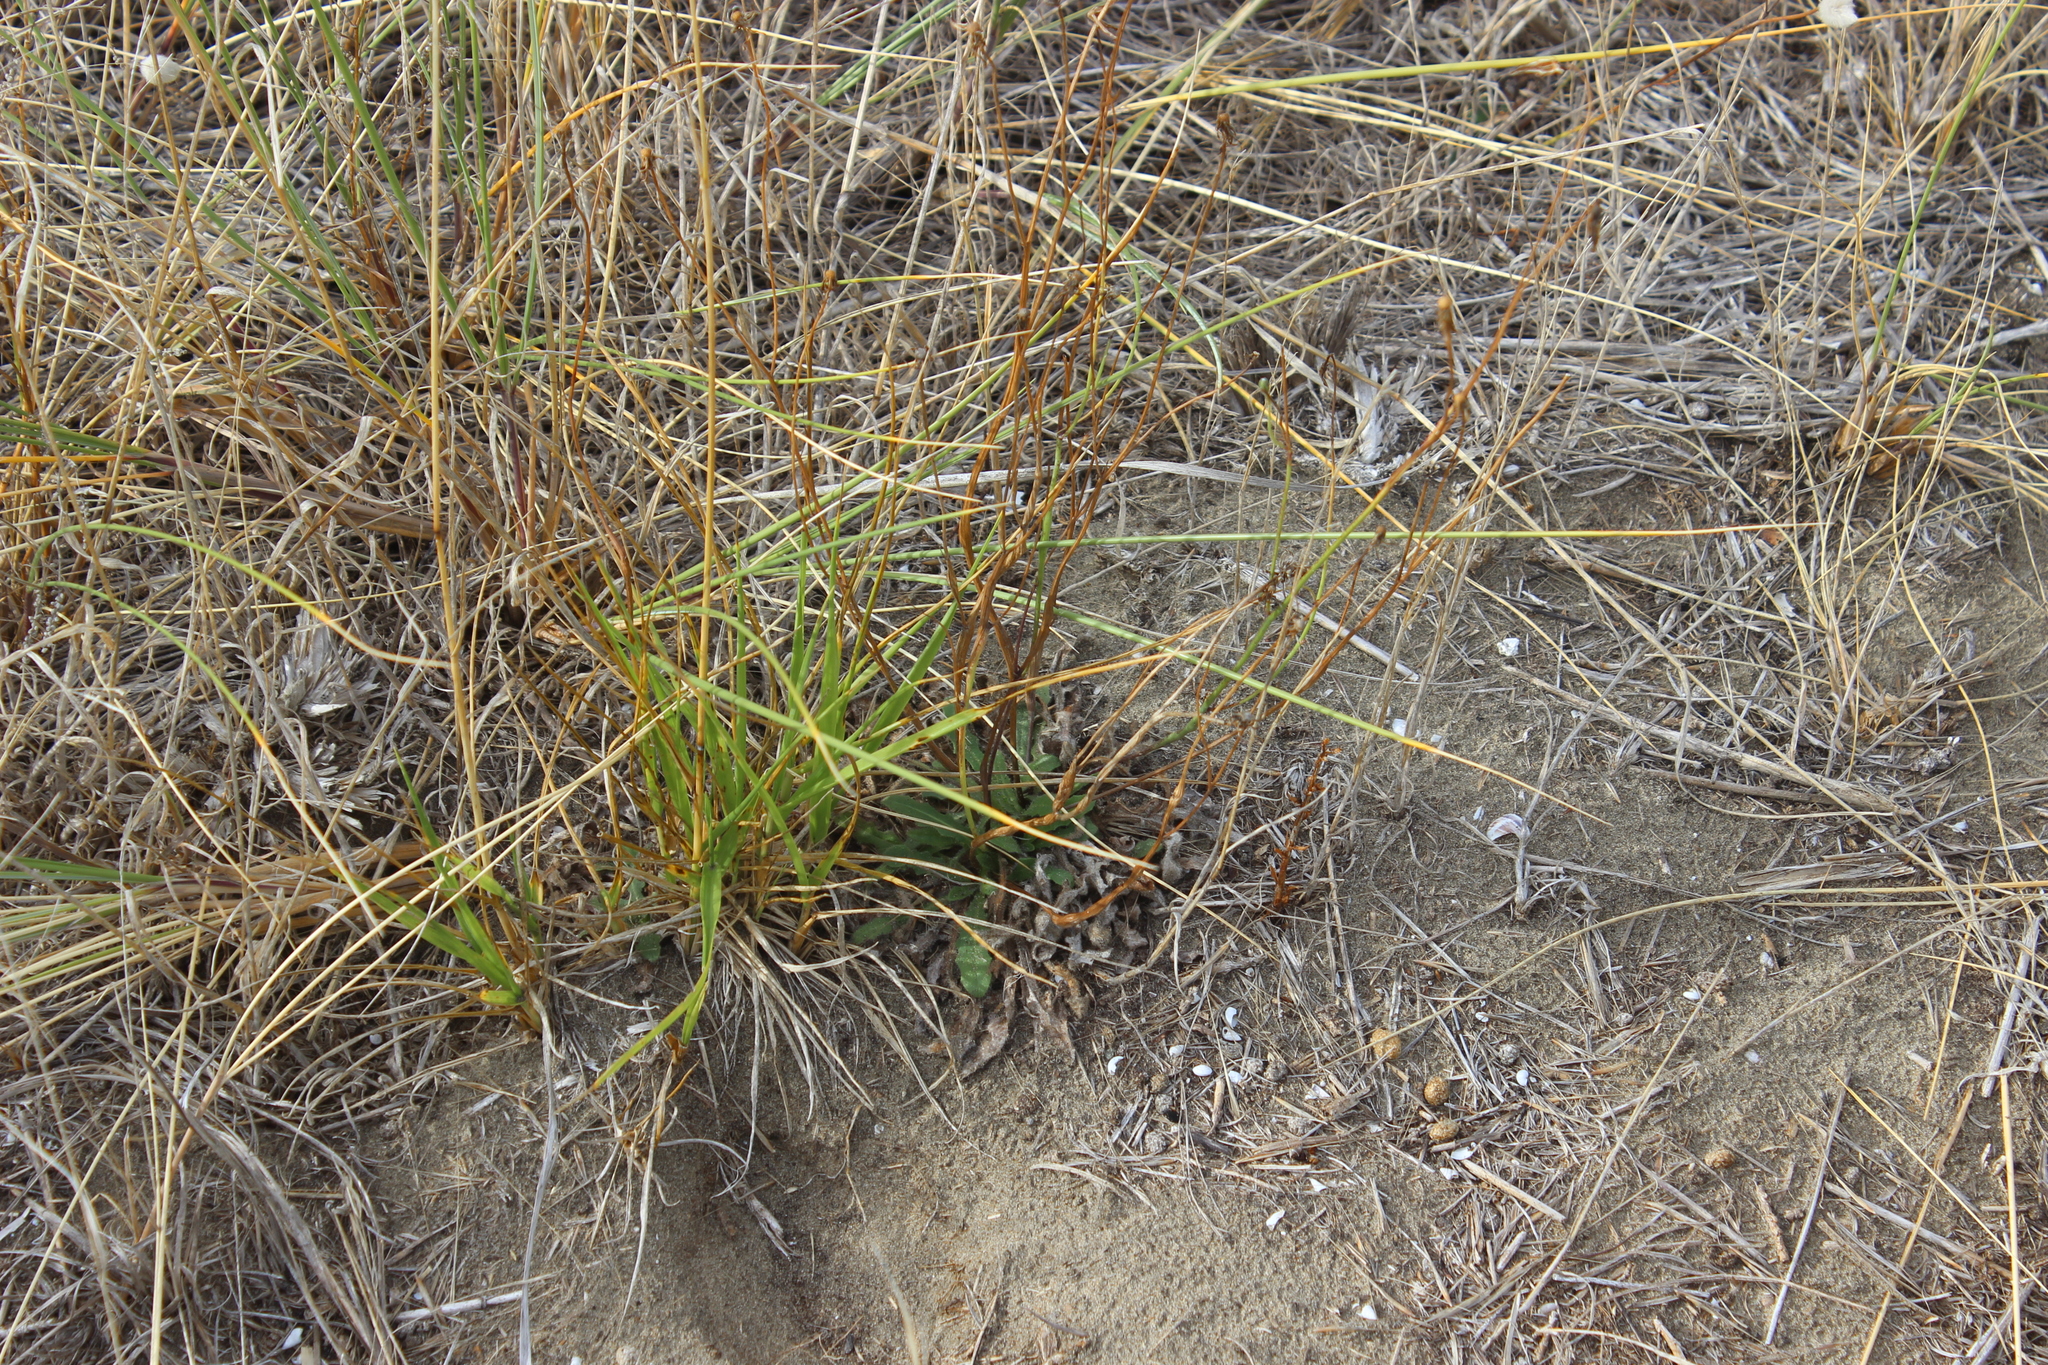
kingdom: Animalia
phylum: Arthropoda
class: Insecta
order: Hymenoptera
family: Cynipidae
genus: Phanacis
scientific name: Phanacis hypochoeridis
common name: Gall wasp
